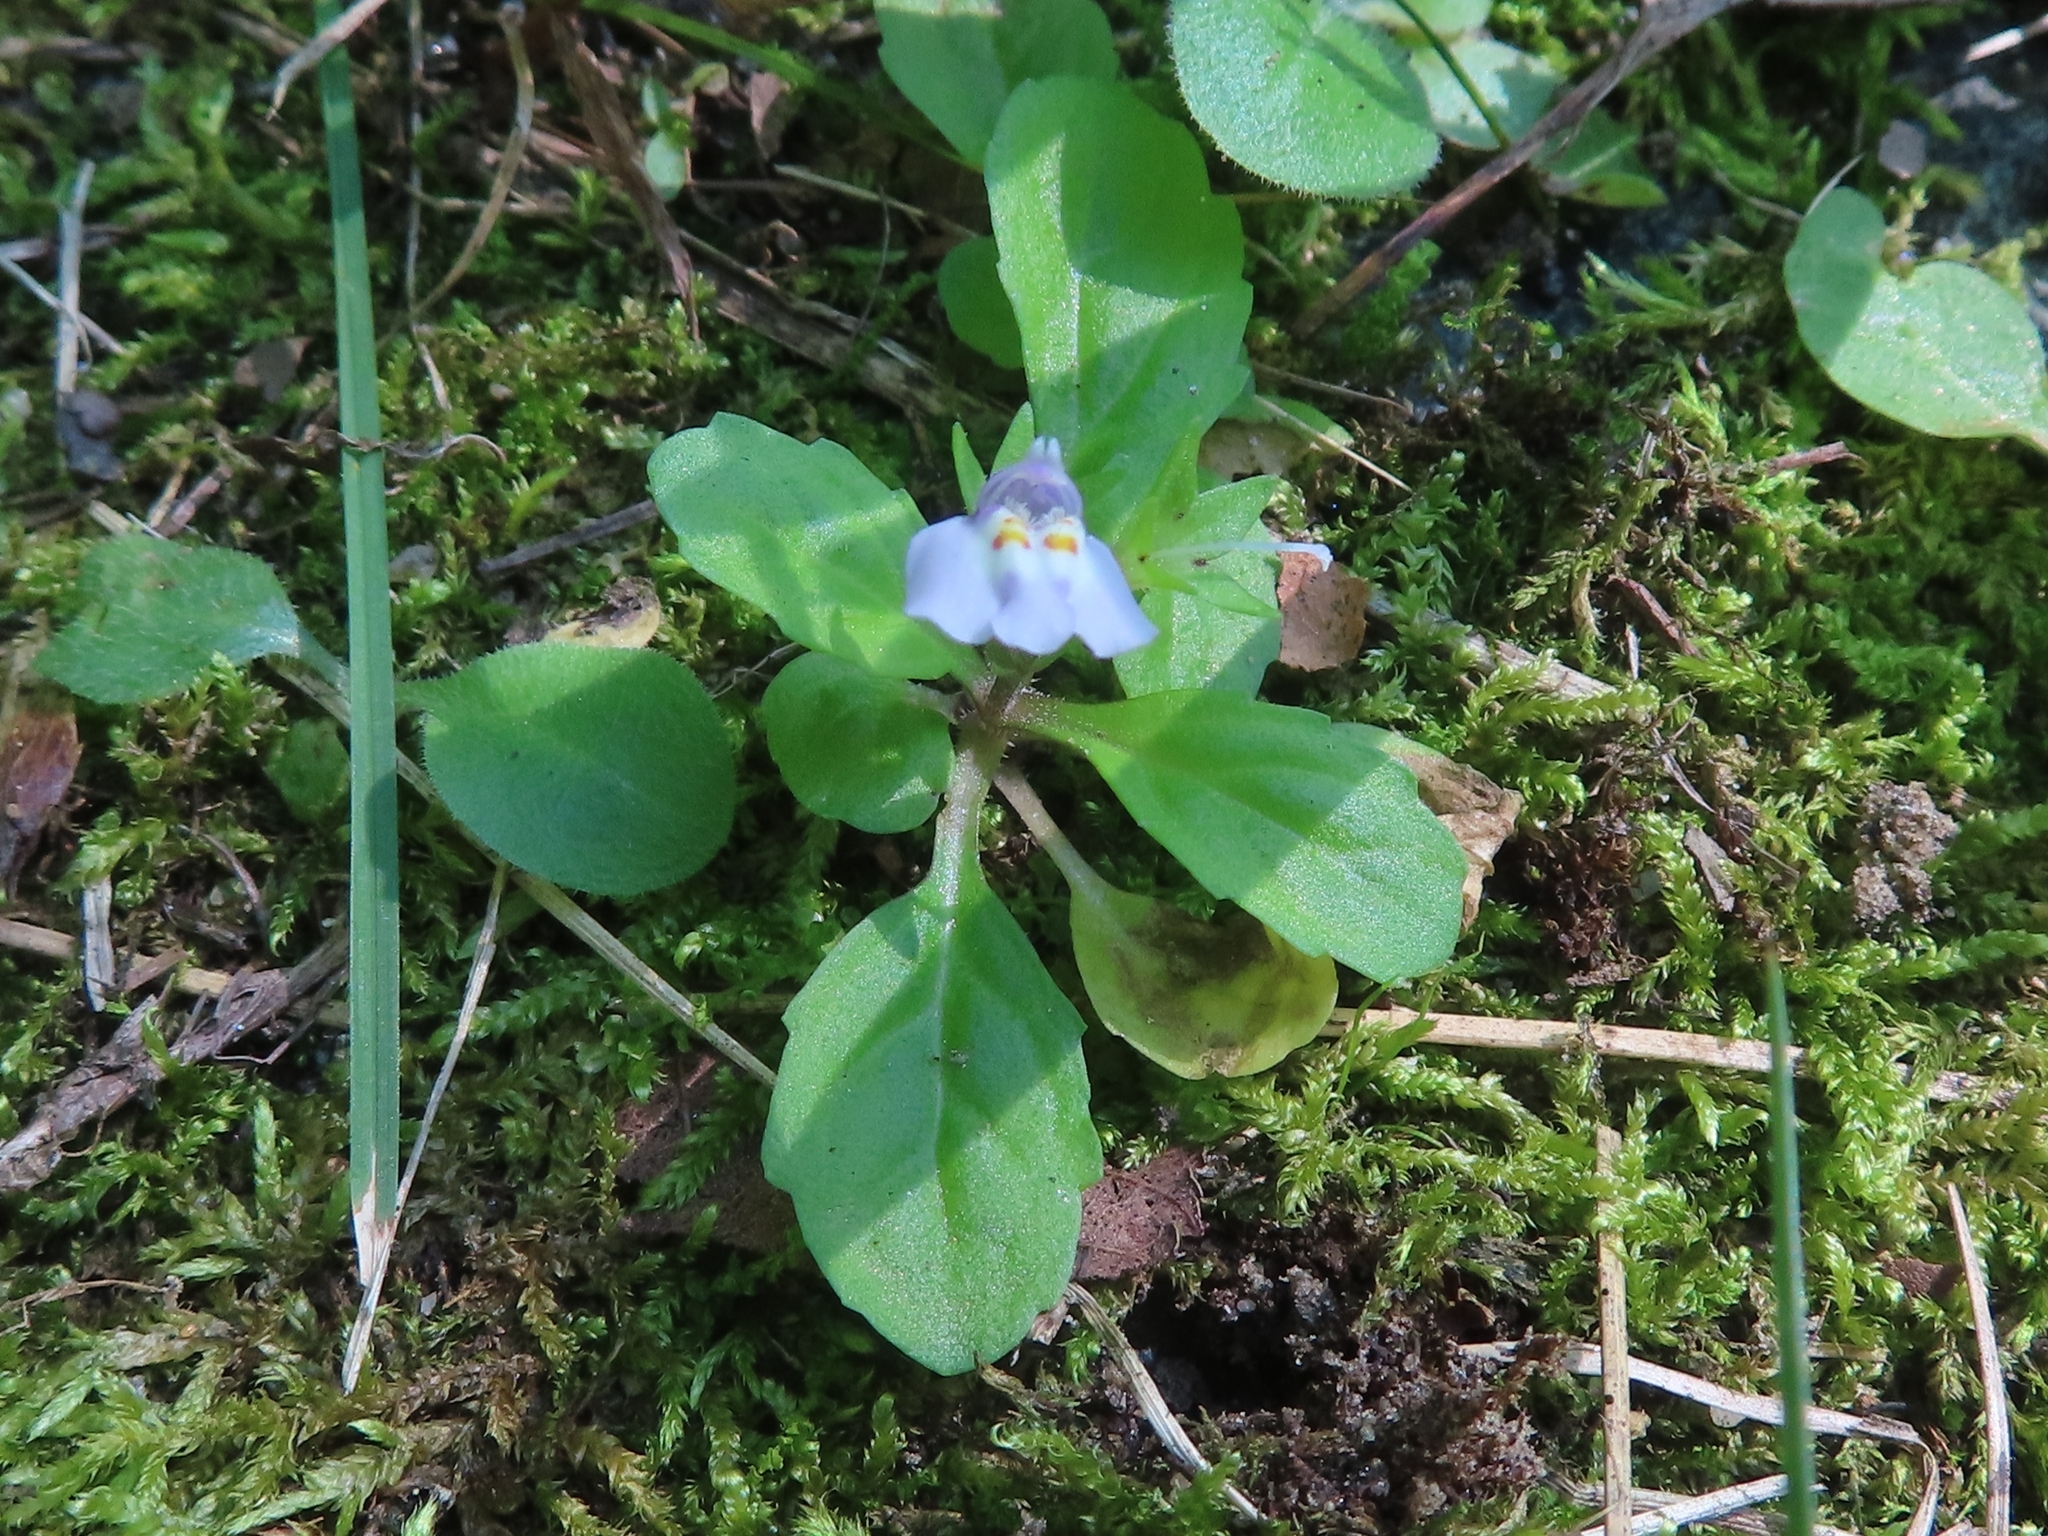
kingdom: Plantae
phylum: Tracheophyta
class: Magnoliopsida
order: Lamiales
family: Mazaceae
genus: Mazus
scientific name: Mazus pumilus
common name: Japanese mazus
